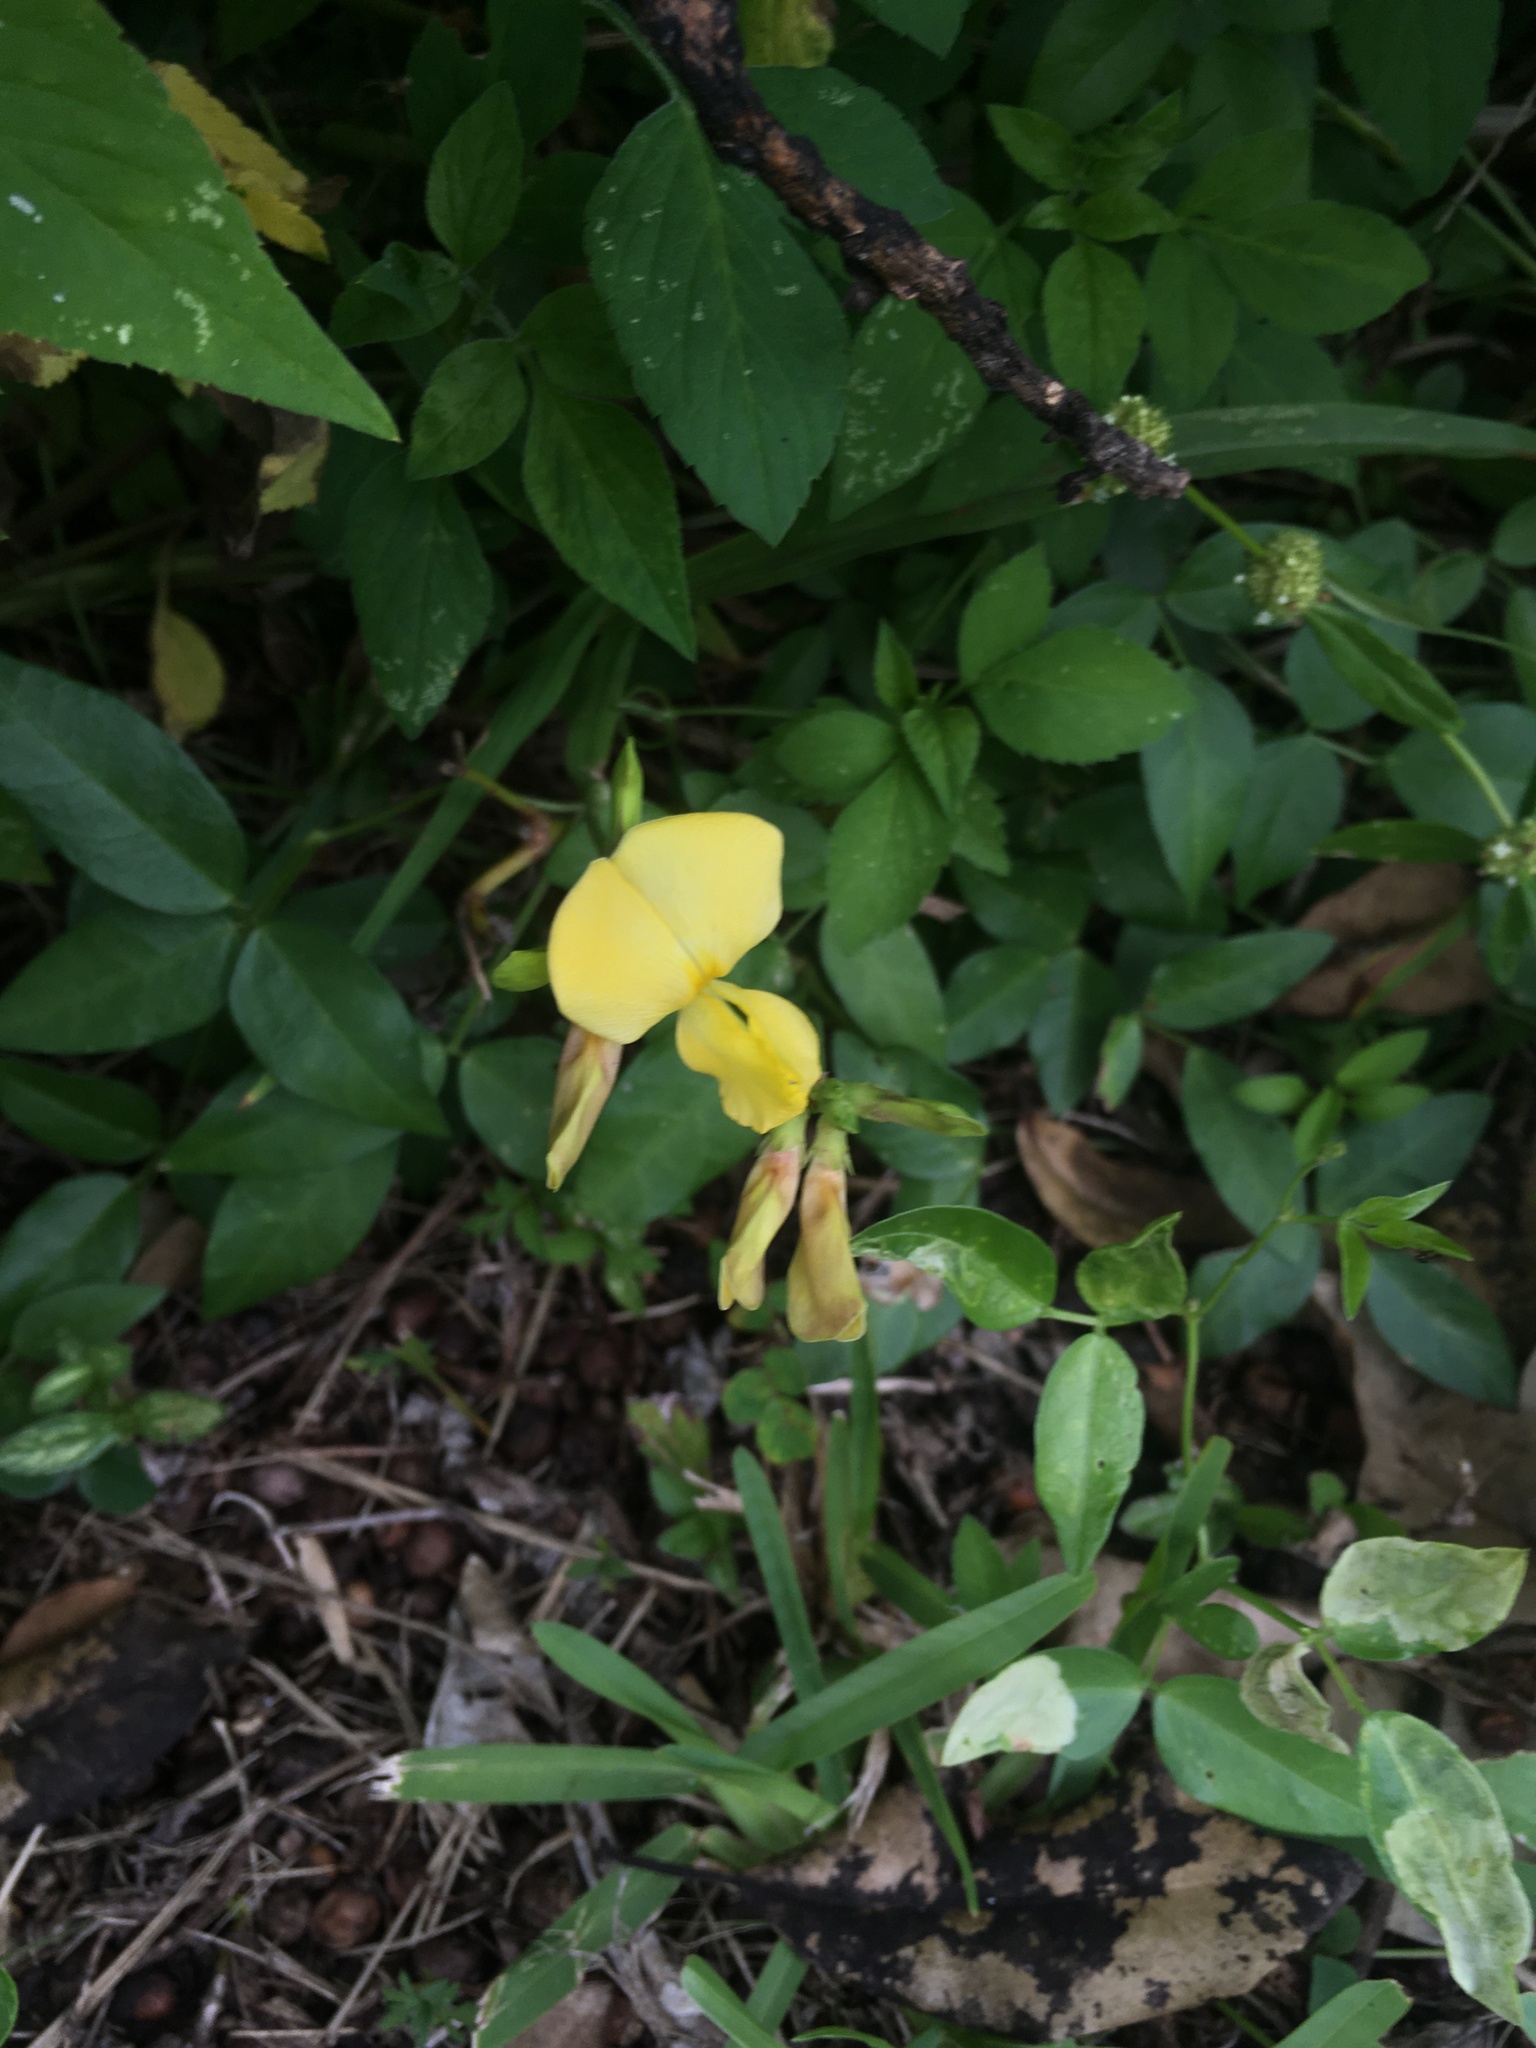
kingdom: Plantae
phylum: Tracheophyta
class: Magnoliopsida
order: Fabales
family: Fabaceae
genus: Vigna
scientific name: Vigna luteola
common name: Hairypod cowpea
